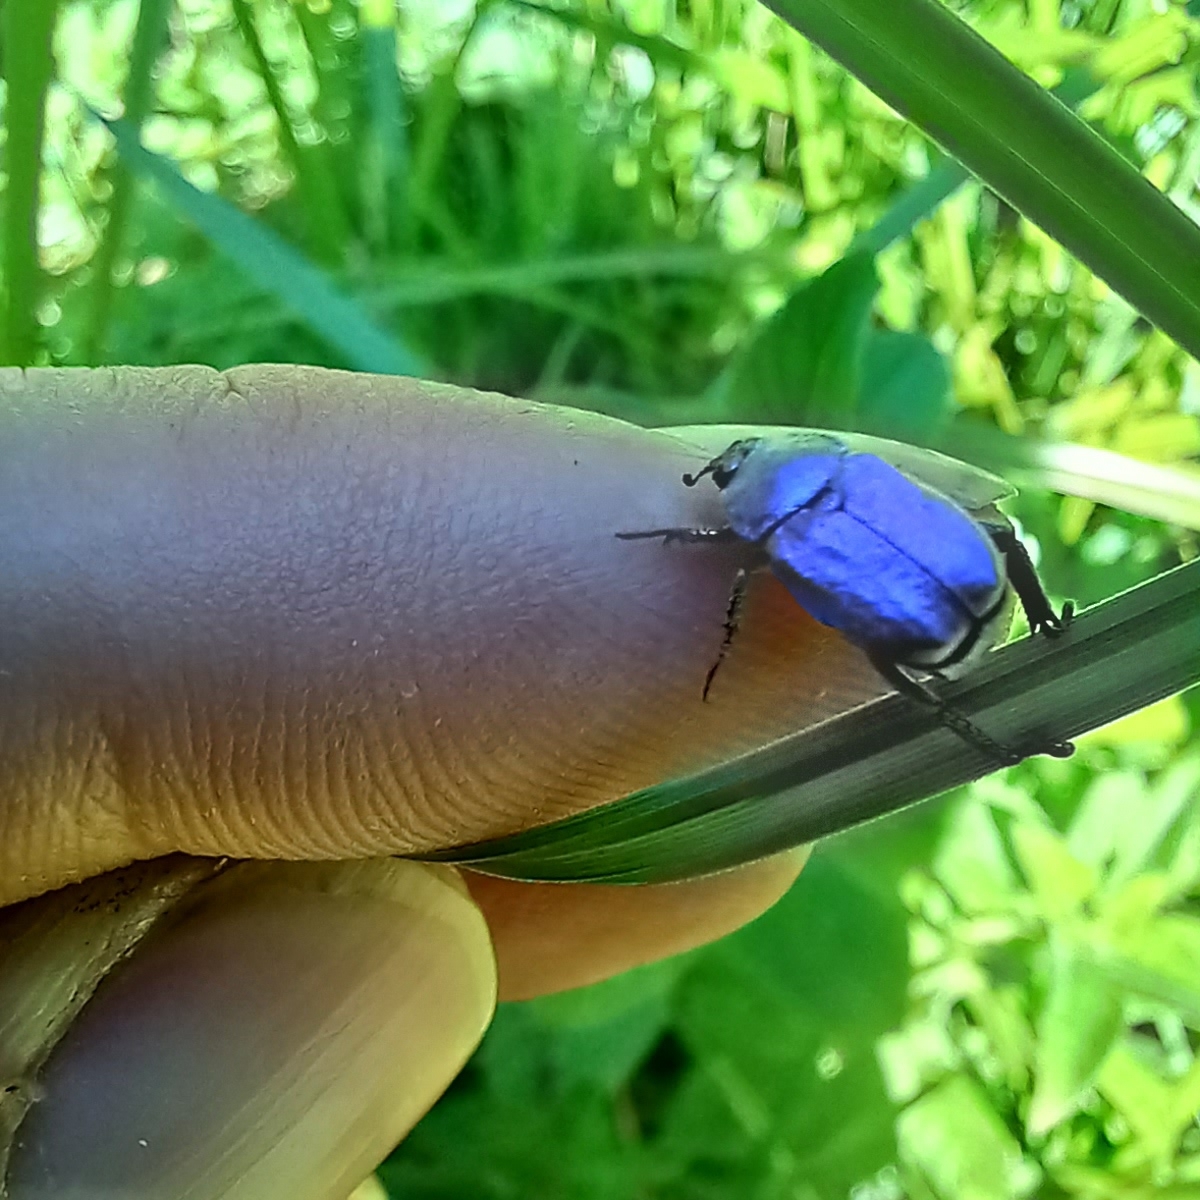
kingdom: Animalia
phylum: Arthropoda
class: Insecta
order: Coleoptera
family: Scarabaeidae
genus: Hoplia
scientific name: Hoplia coerulea
